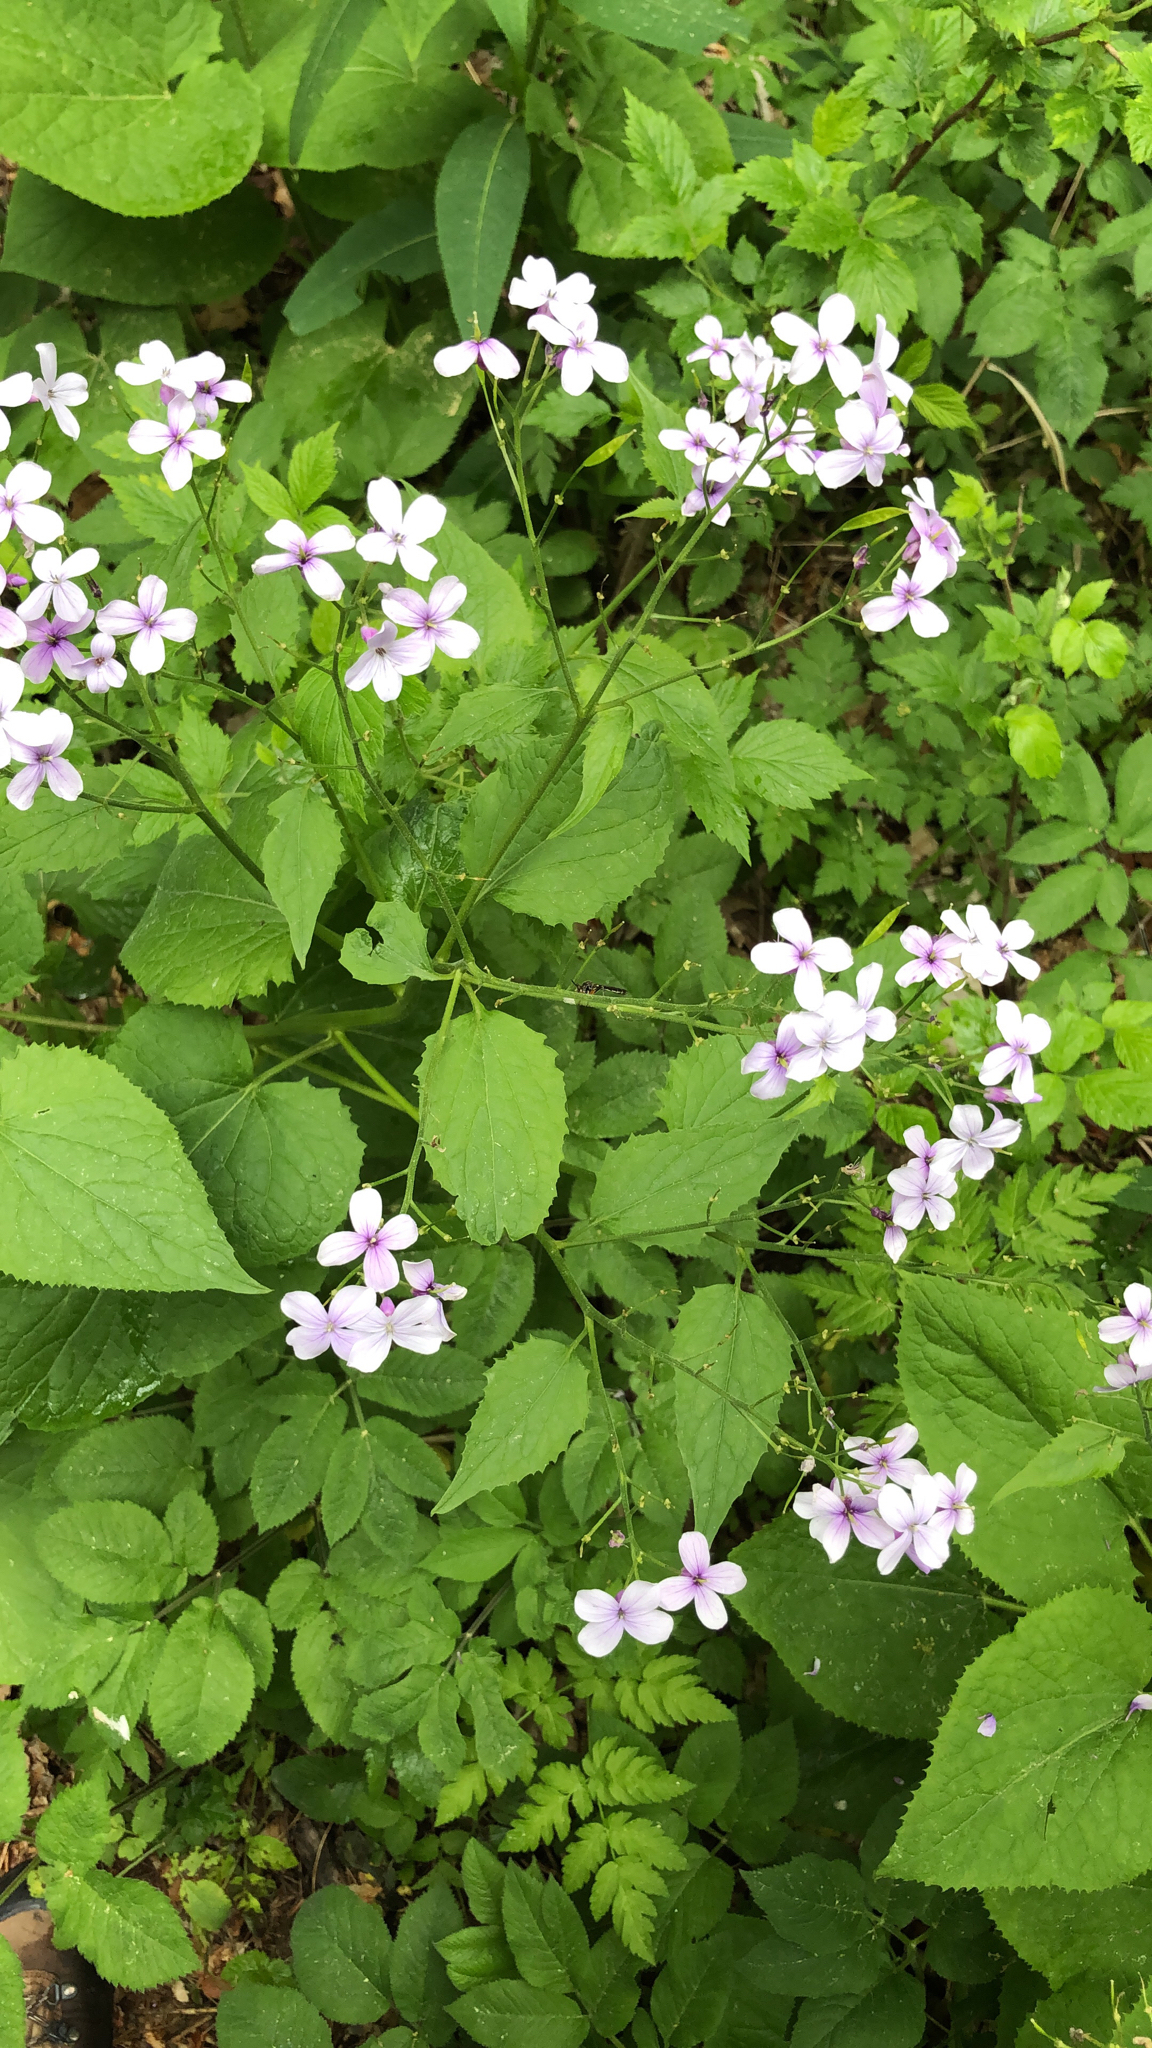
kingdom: Plantae
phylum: Tracheophyta
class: Magnoliopsida
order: Brassicales
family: Brassicaceae
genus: Lunaria
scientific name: Lunaria rediviva
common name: Perennial honesty
